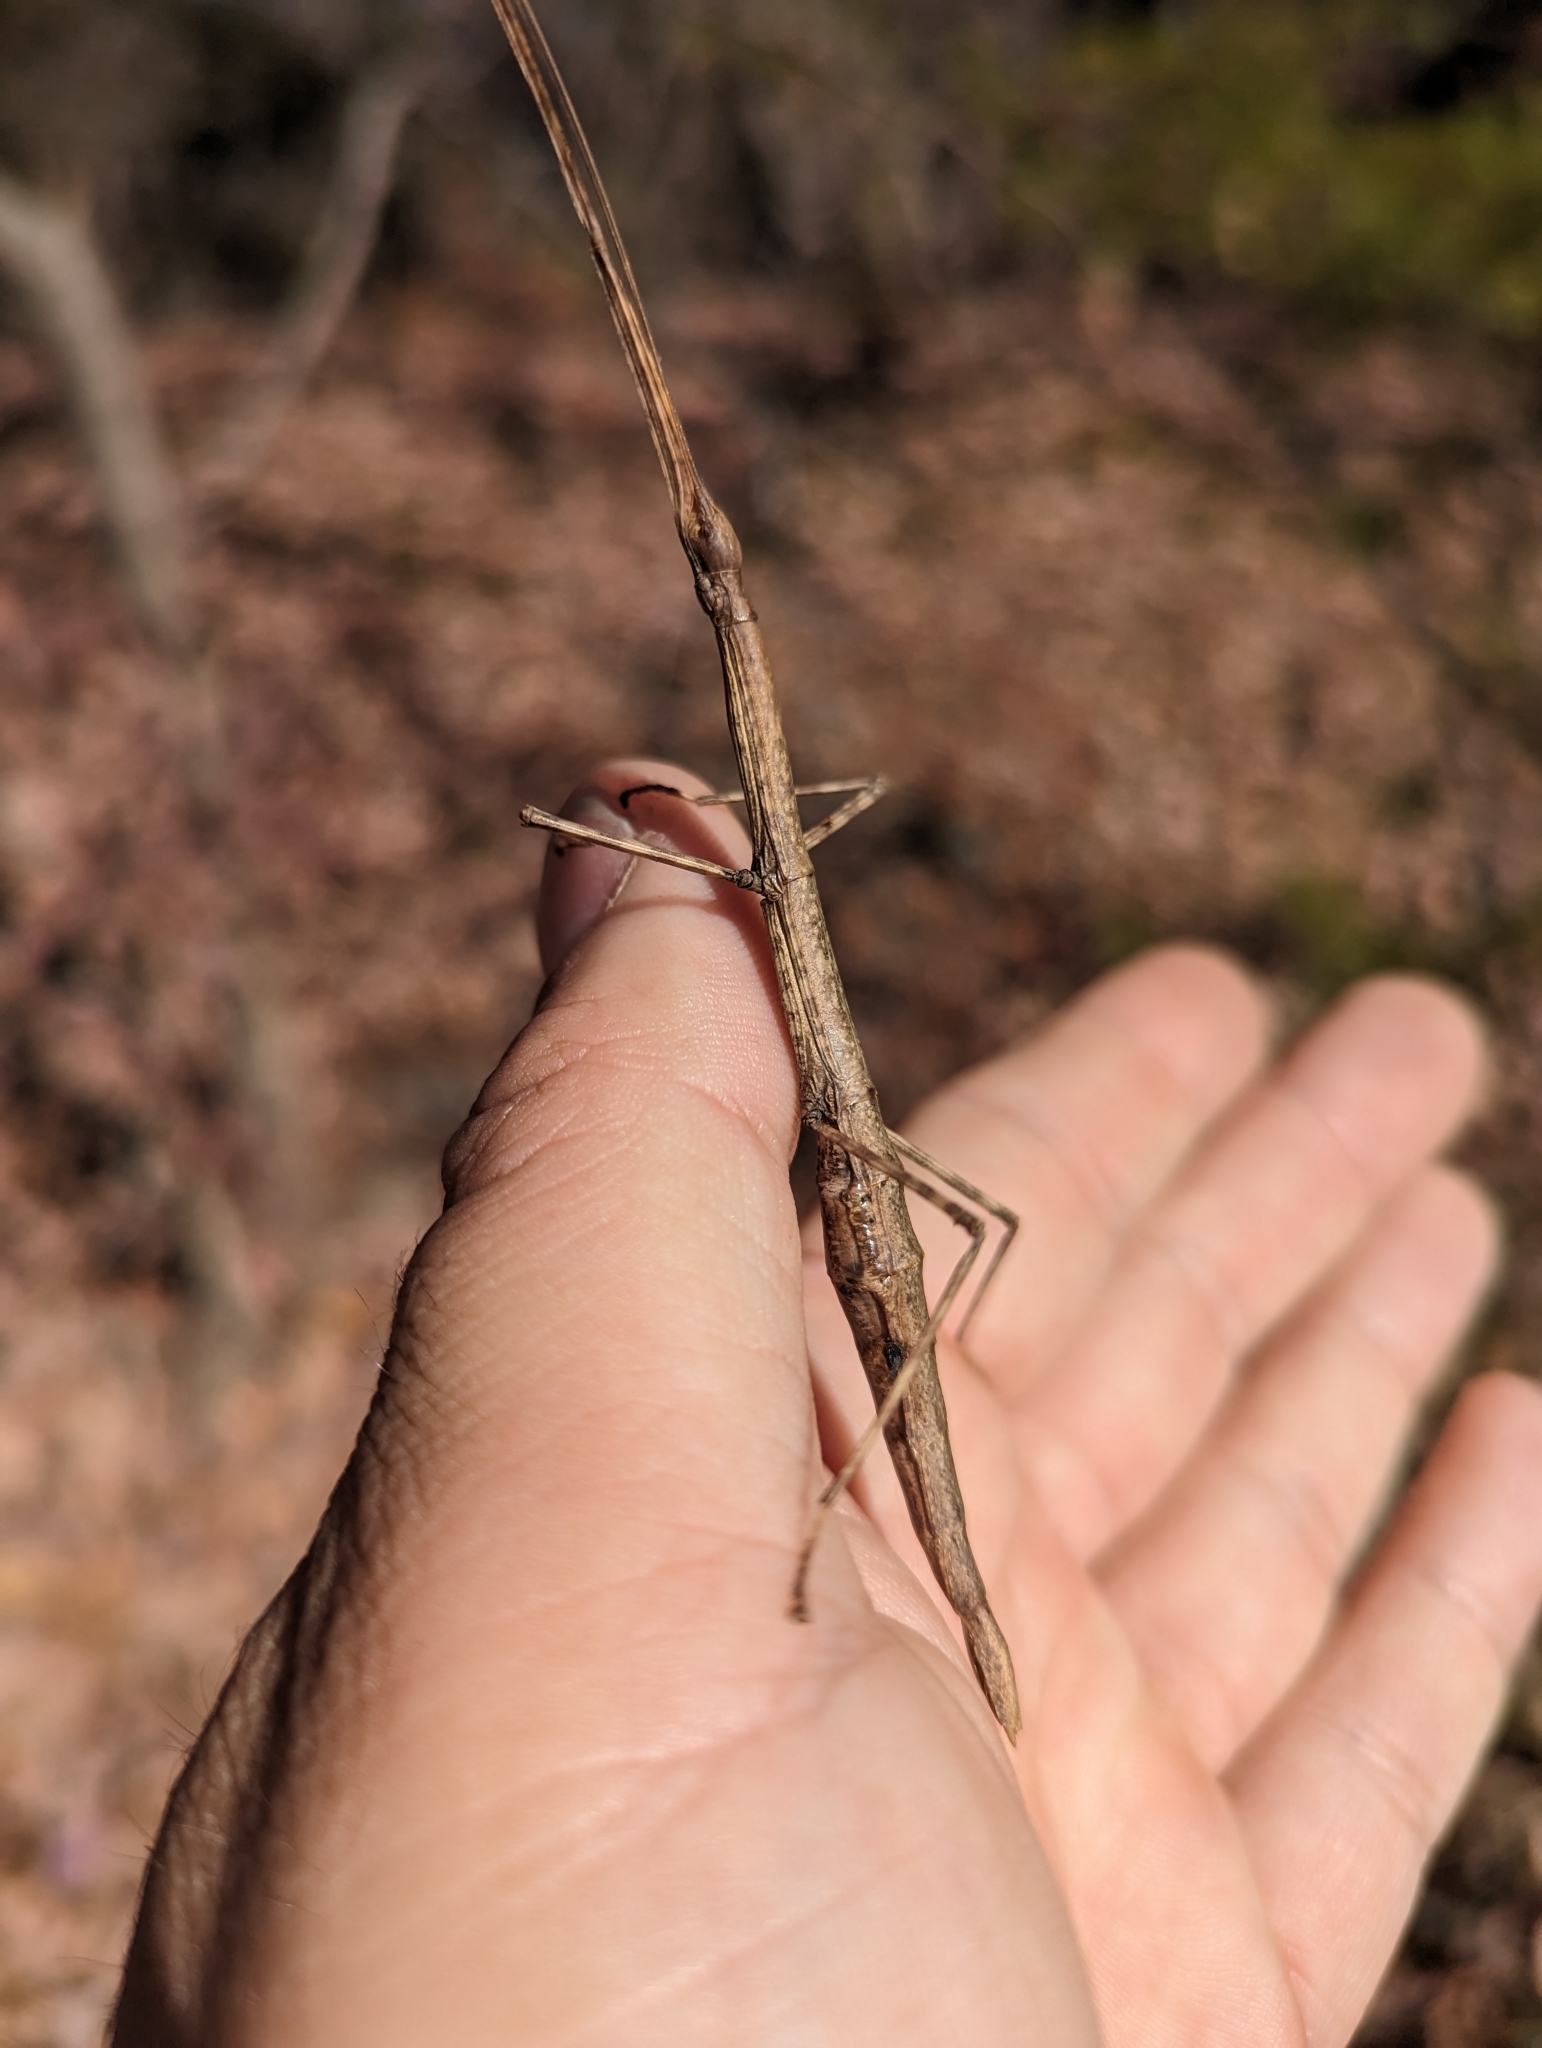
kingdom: Animalia
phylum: Arthropoda
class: Insecta
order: Phasmida
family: Diapheromeridae
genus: Diapheromera
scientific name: Diapheromera femorata
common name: Common american walkingstick
